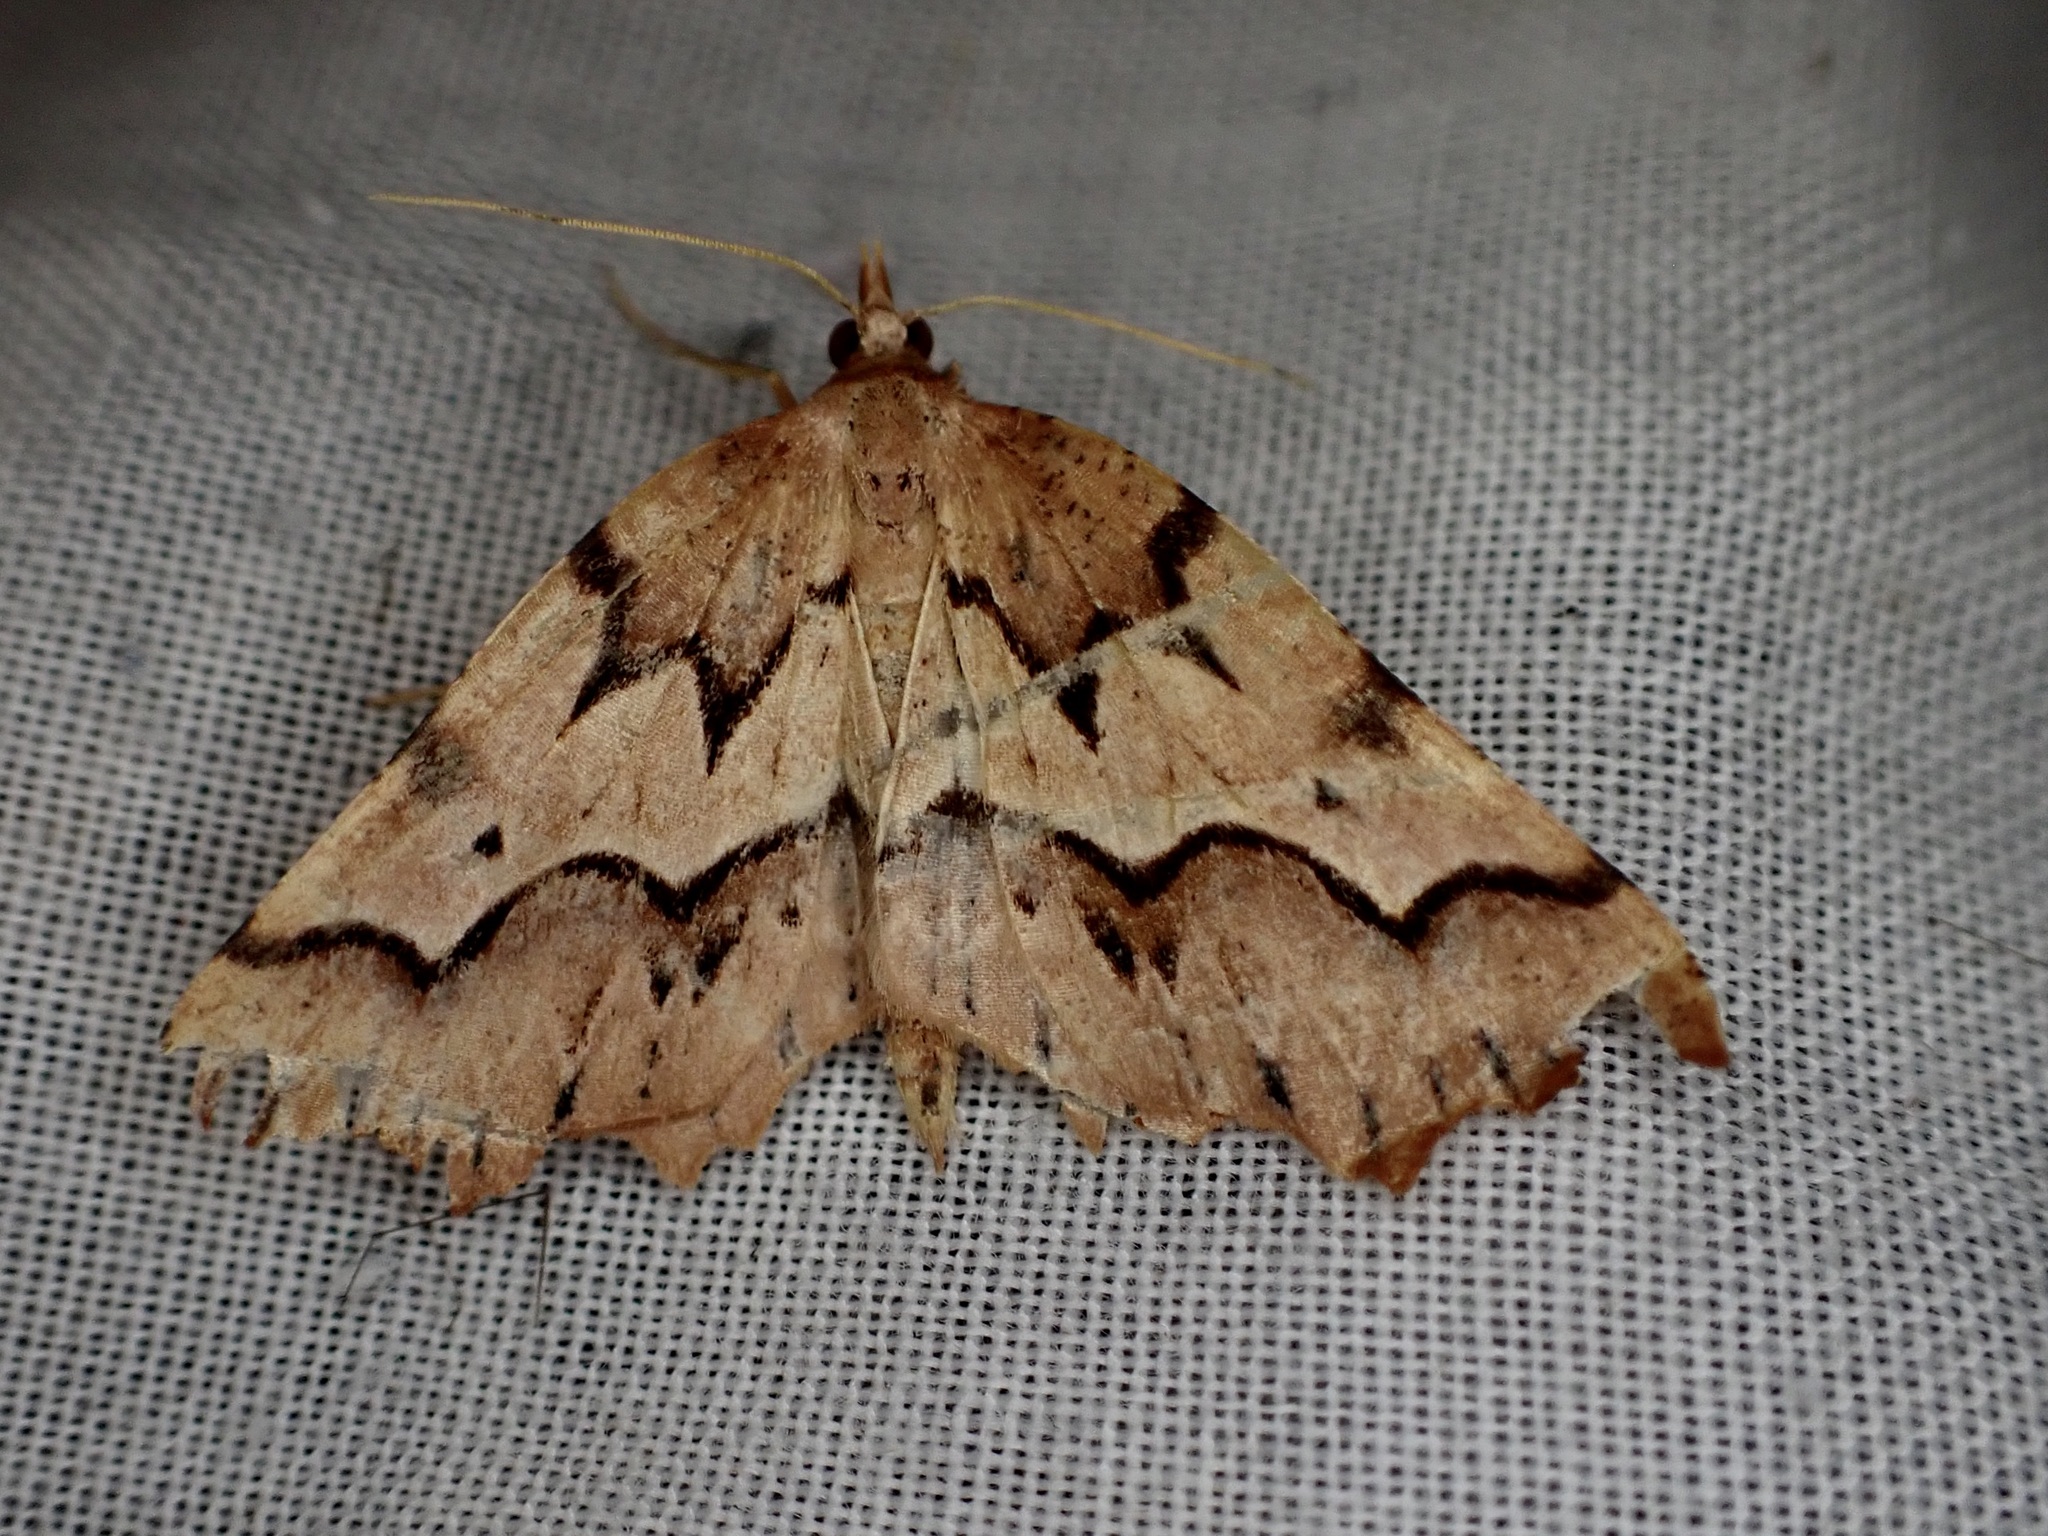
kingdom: Animalia
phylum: Arthropoda
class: Insecta
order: Lepidoptera
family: Geometridae
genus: Ischalis
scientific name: Ischalis fortinata
